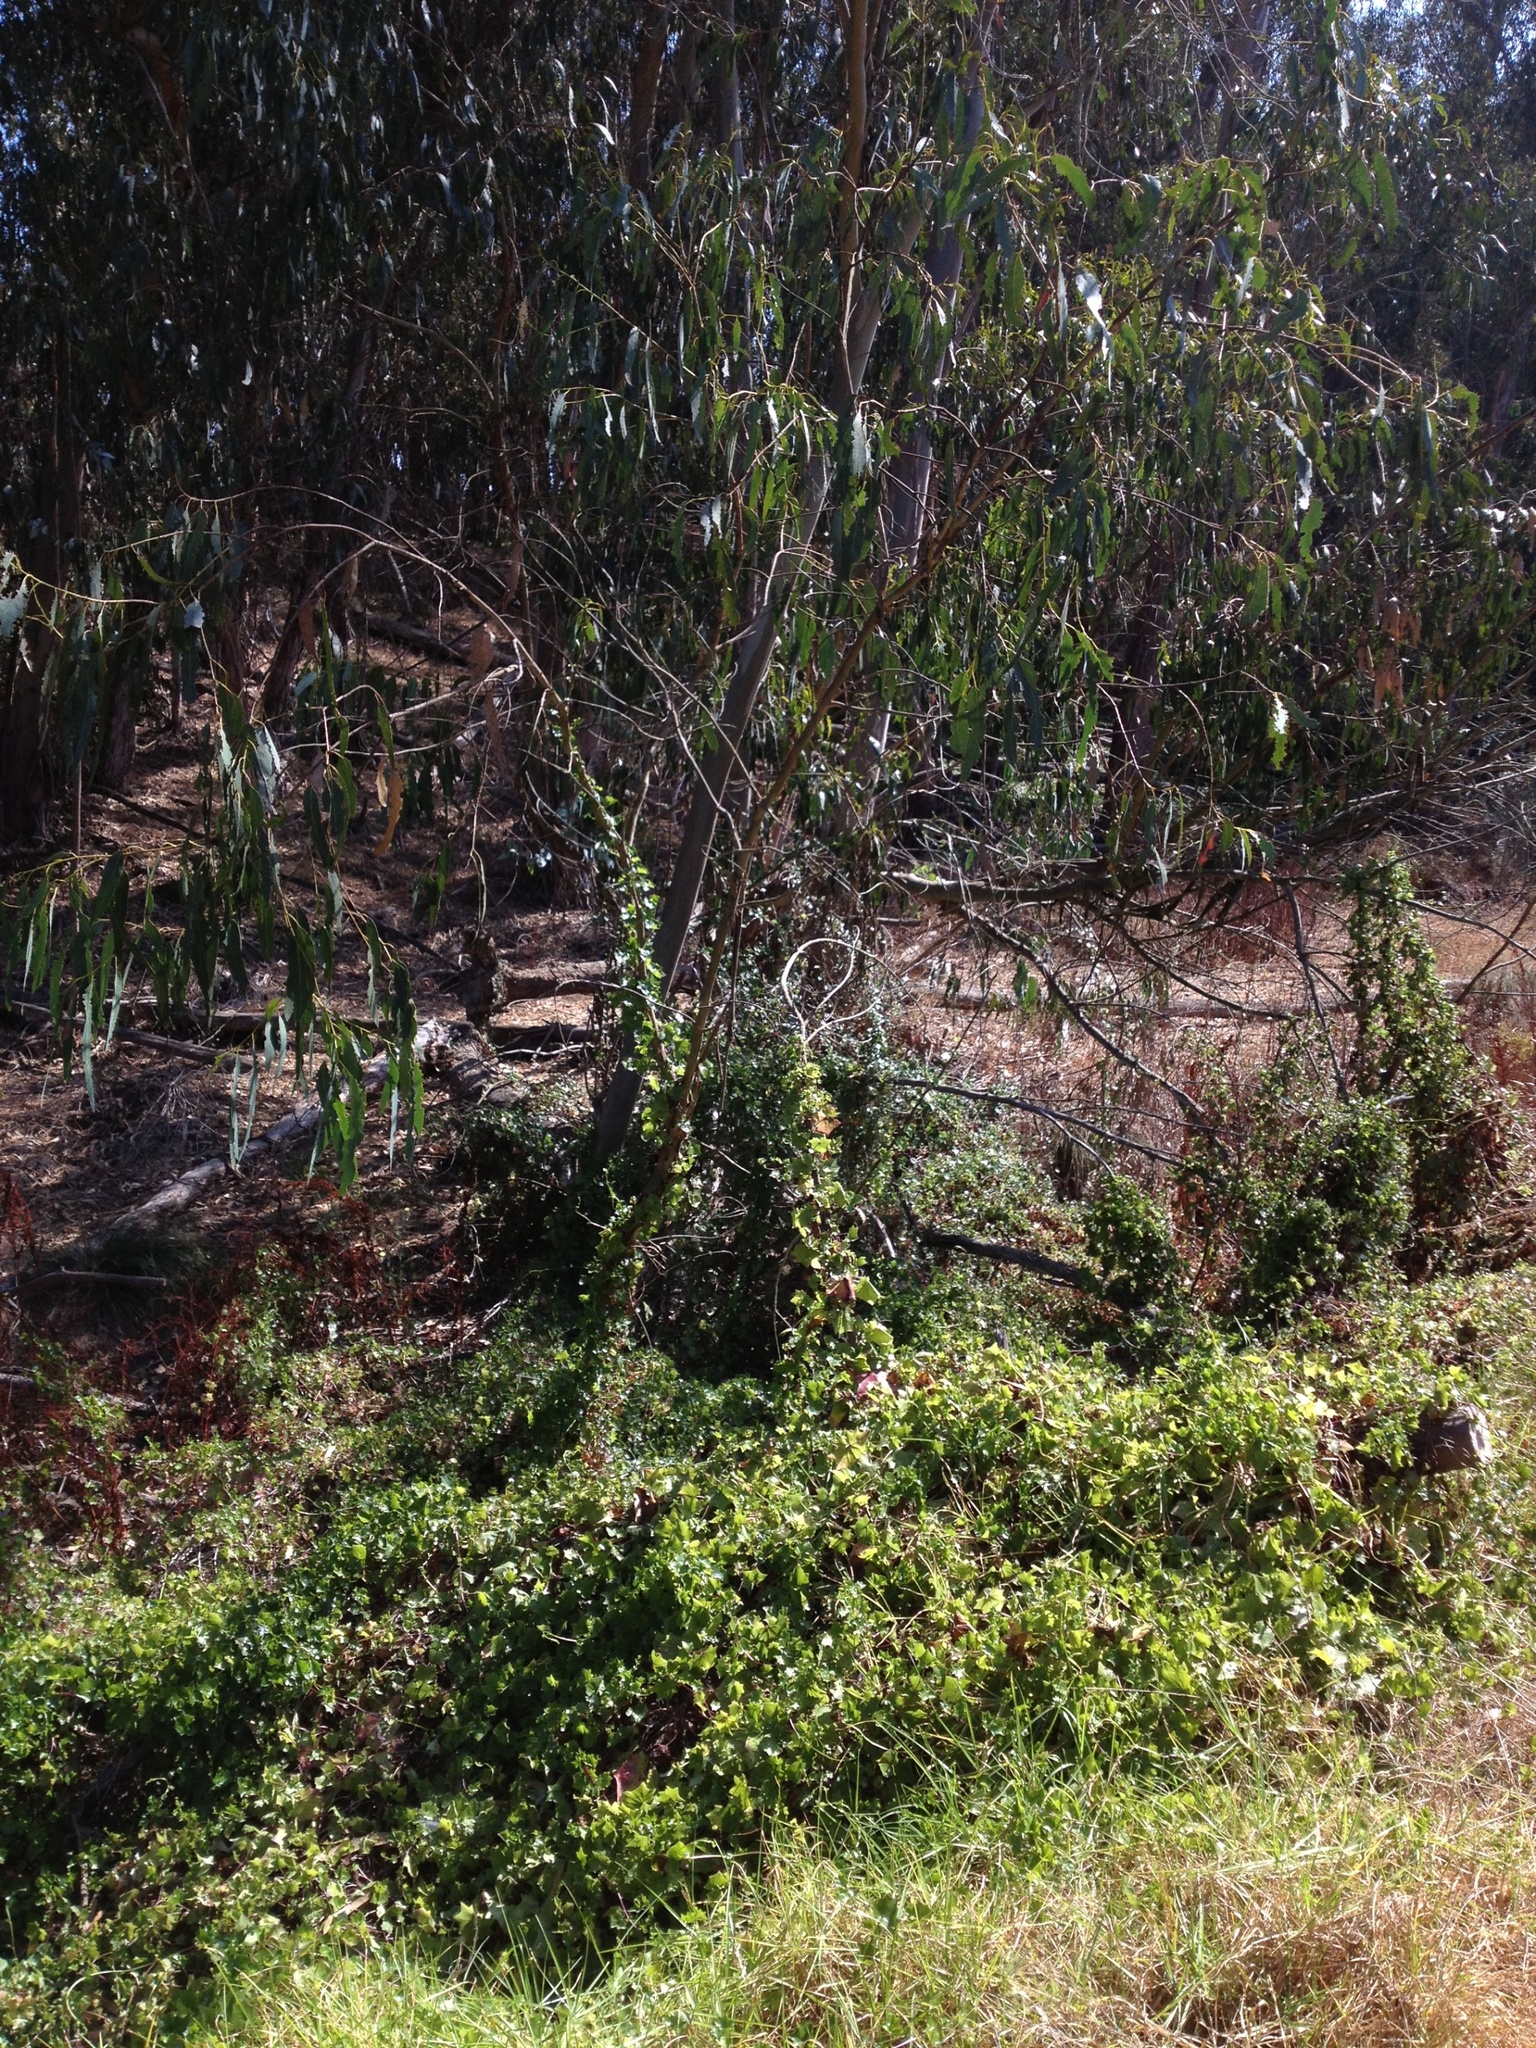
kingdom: Plantae
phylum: Tracheophyta
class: Magnoliopsida
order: Asterales
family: Asteraceae
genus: Delairea
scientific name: Delairea odorata
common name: Cape-ivy
